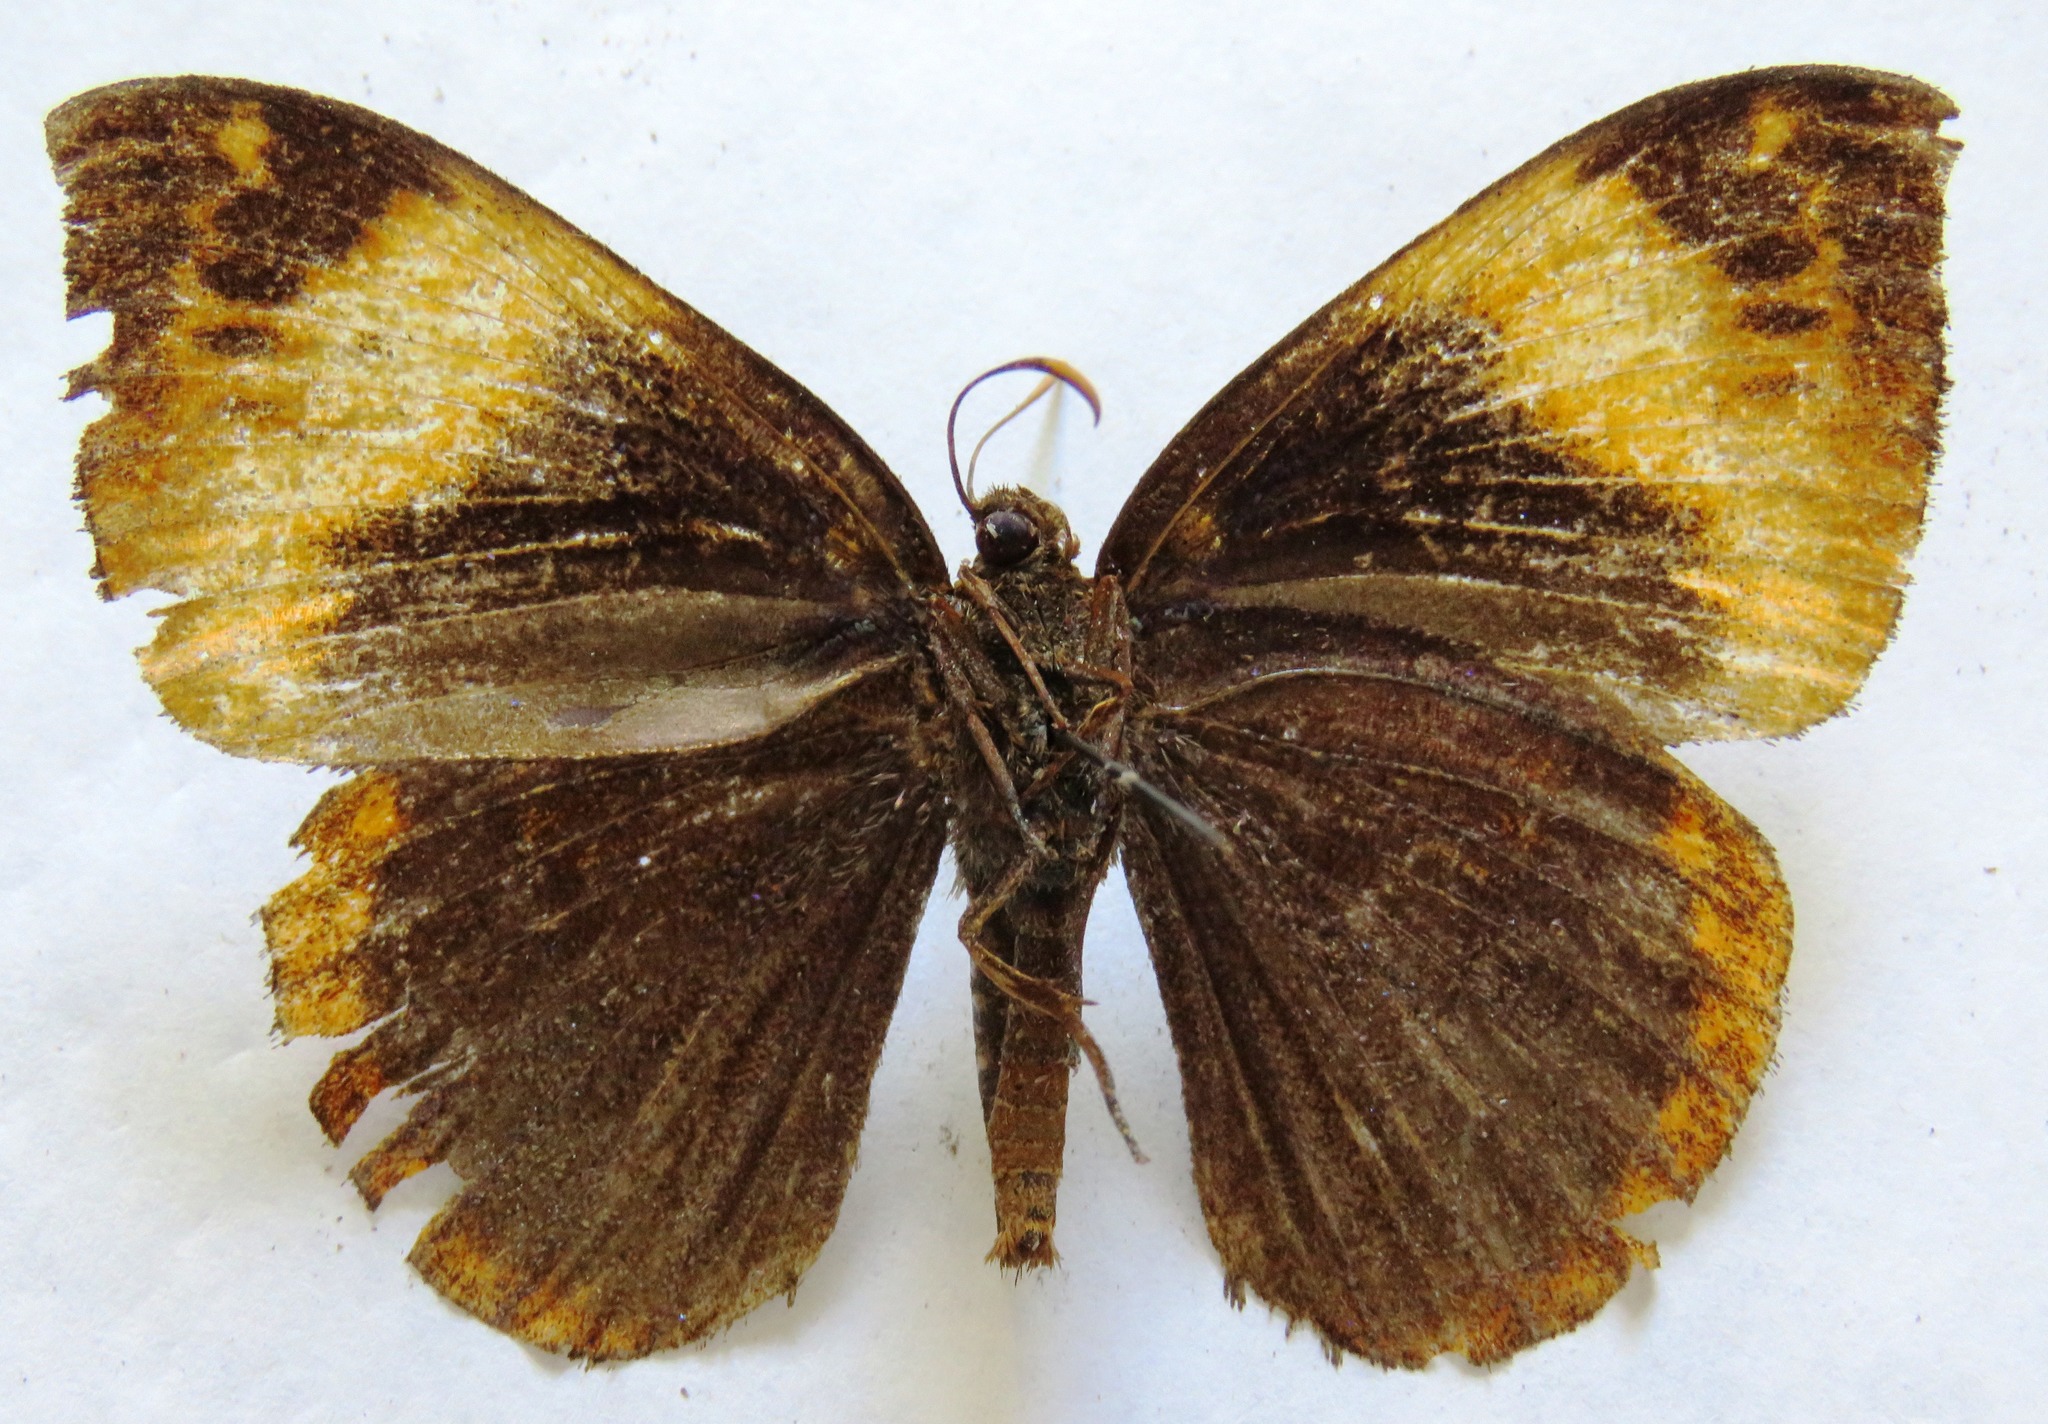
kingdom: Animalia
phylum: Arthropoda
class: Insecta
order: Lepidoptera
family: Castniidae
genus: Divana
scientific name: Divana diva
